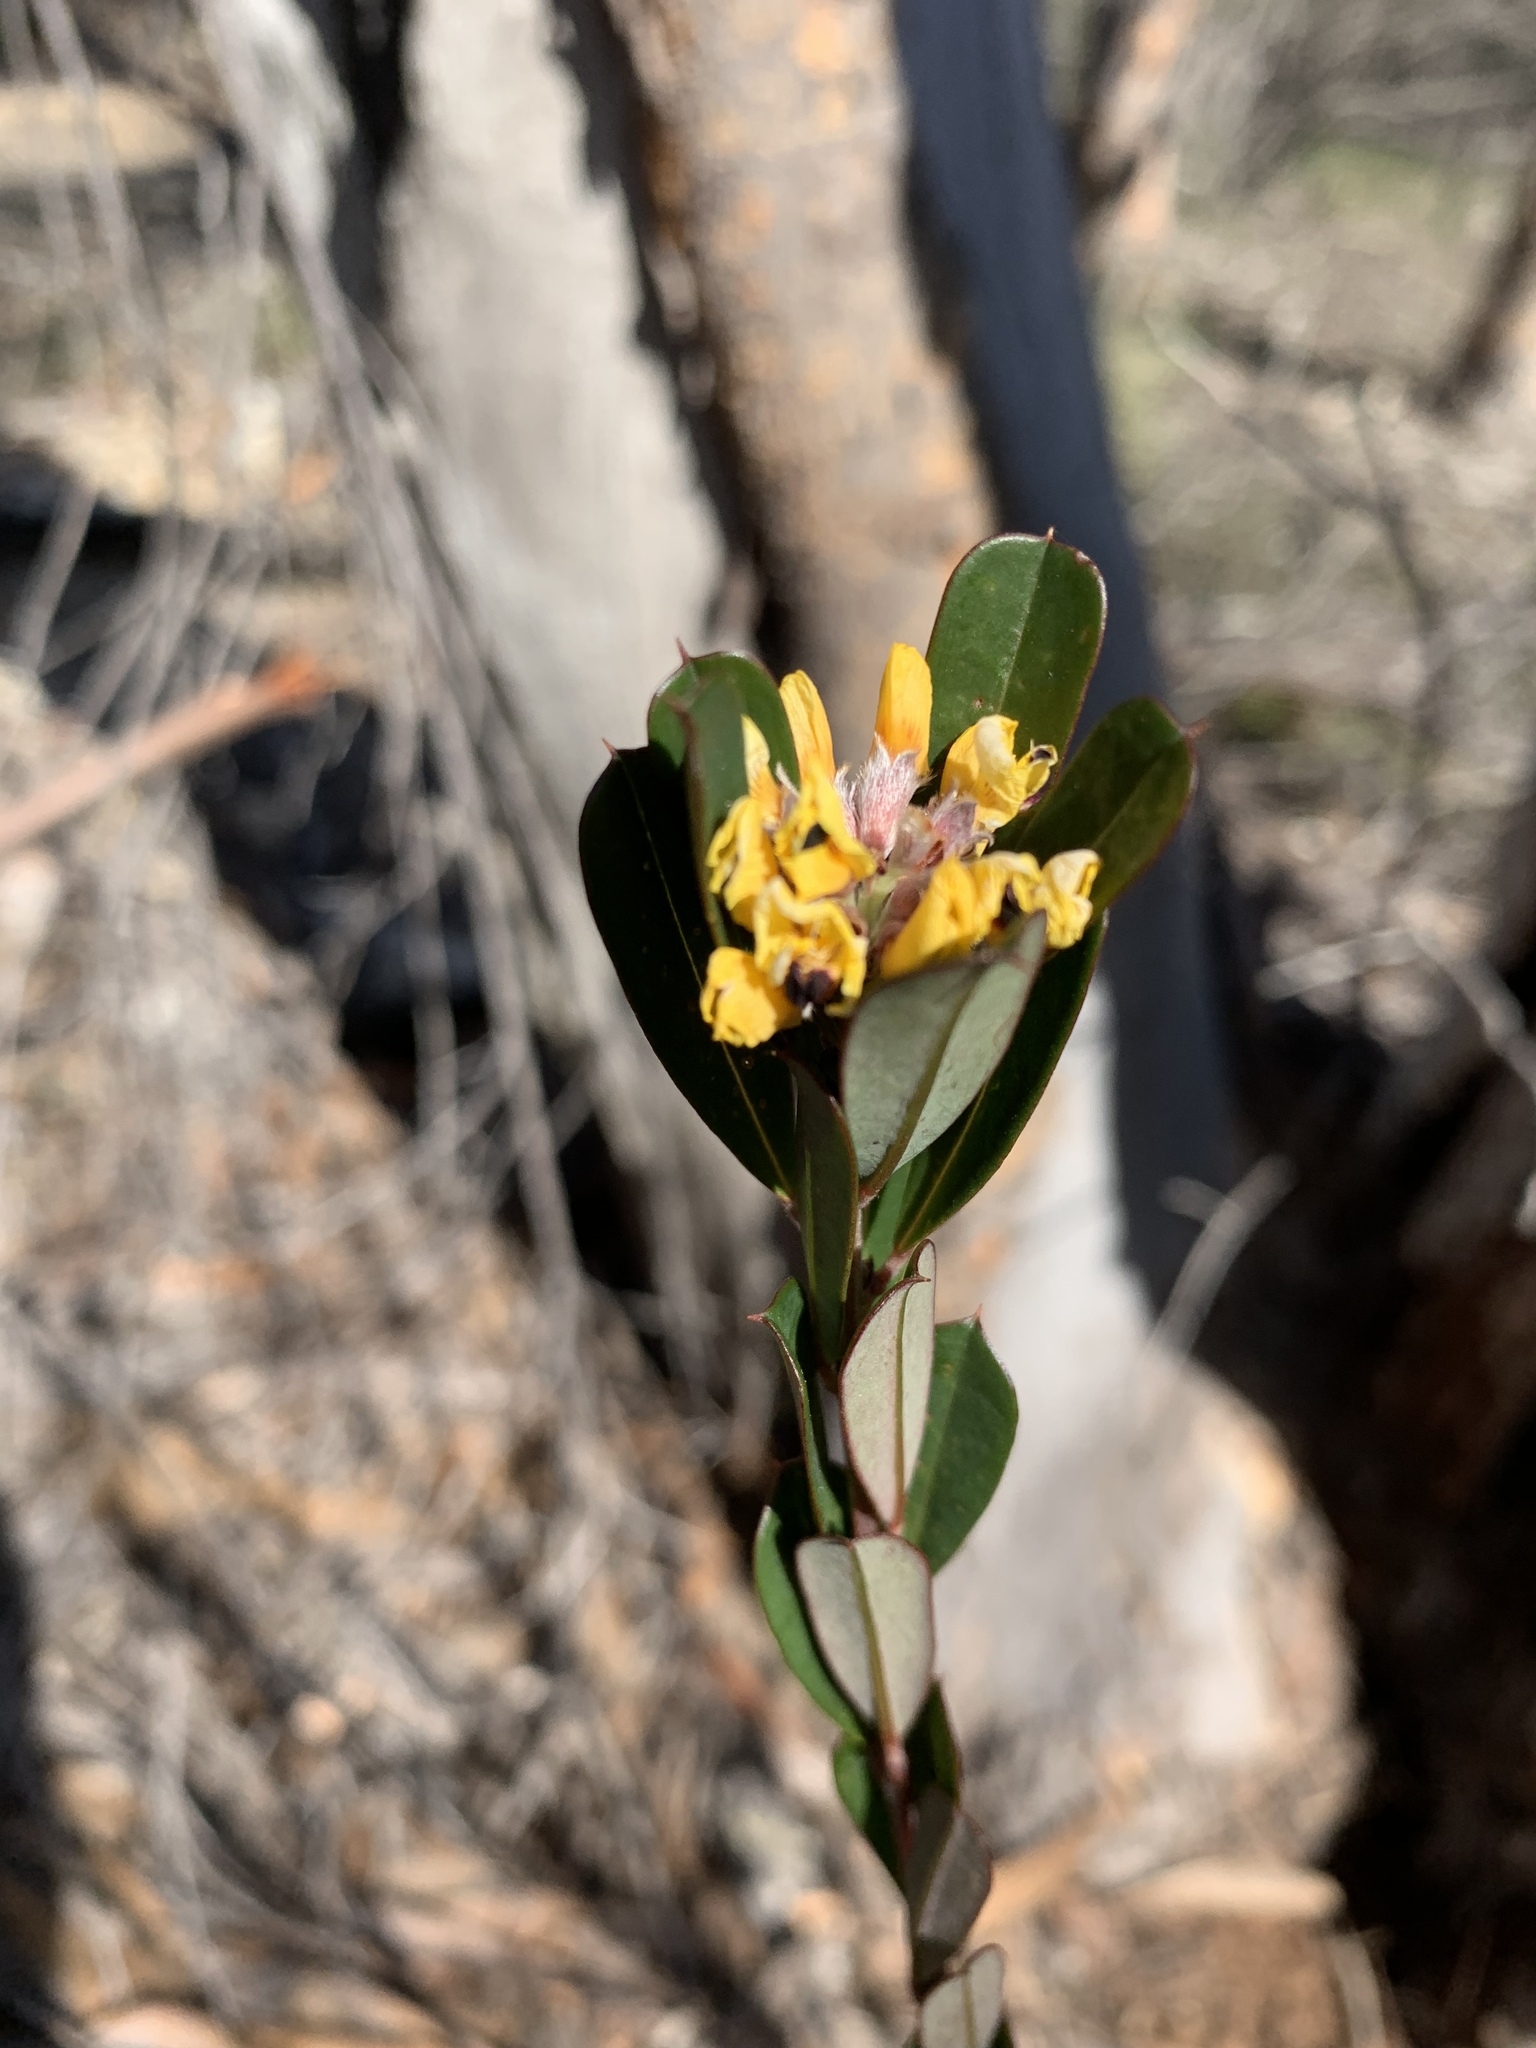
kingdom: Plantae
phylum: Tracheophyta
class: Magnoliopsida
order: Fabales
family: Fabaceae
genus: Pultenaea
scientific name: Pultenaea daphnoides
